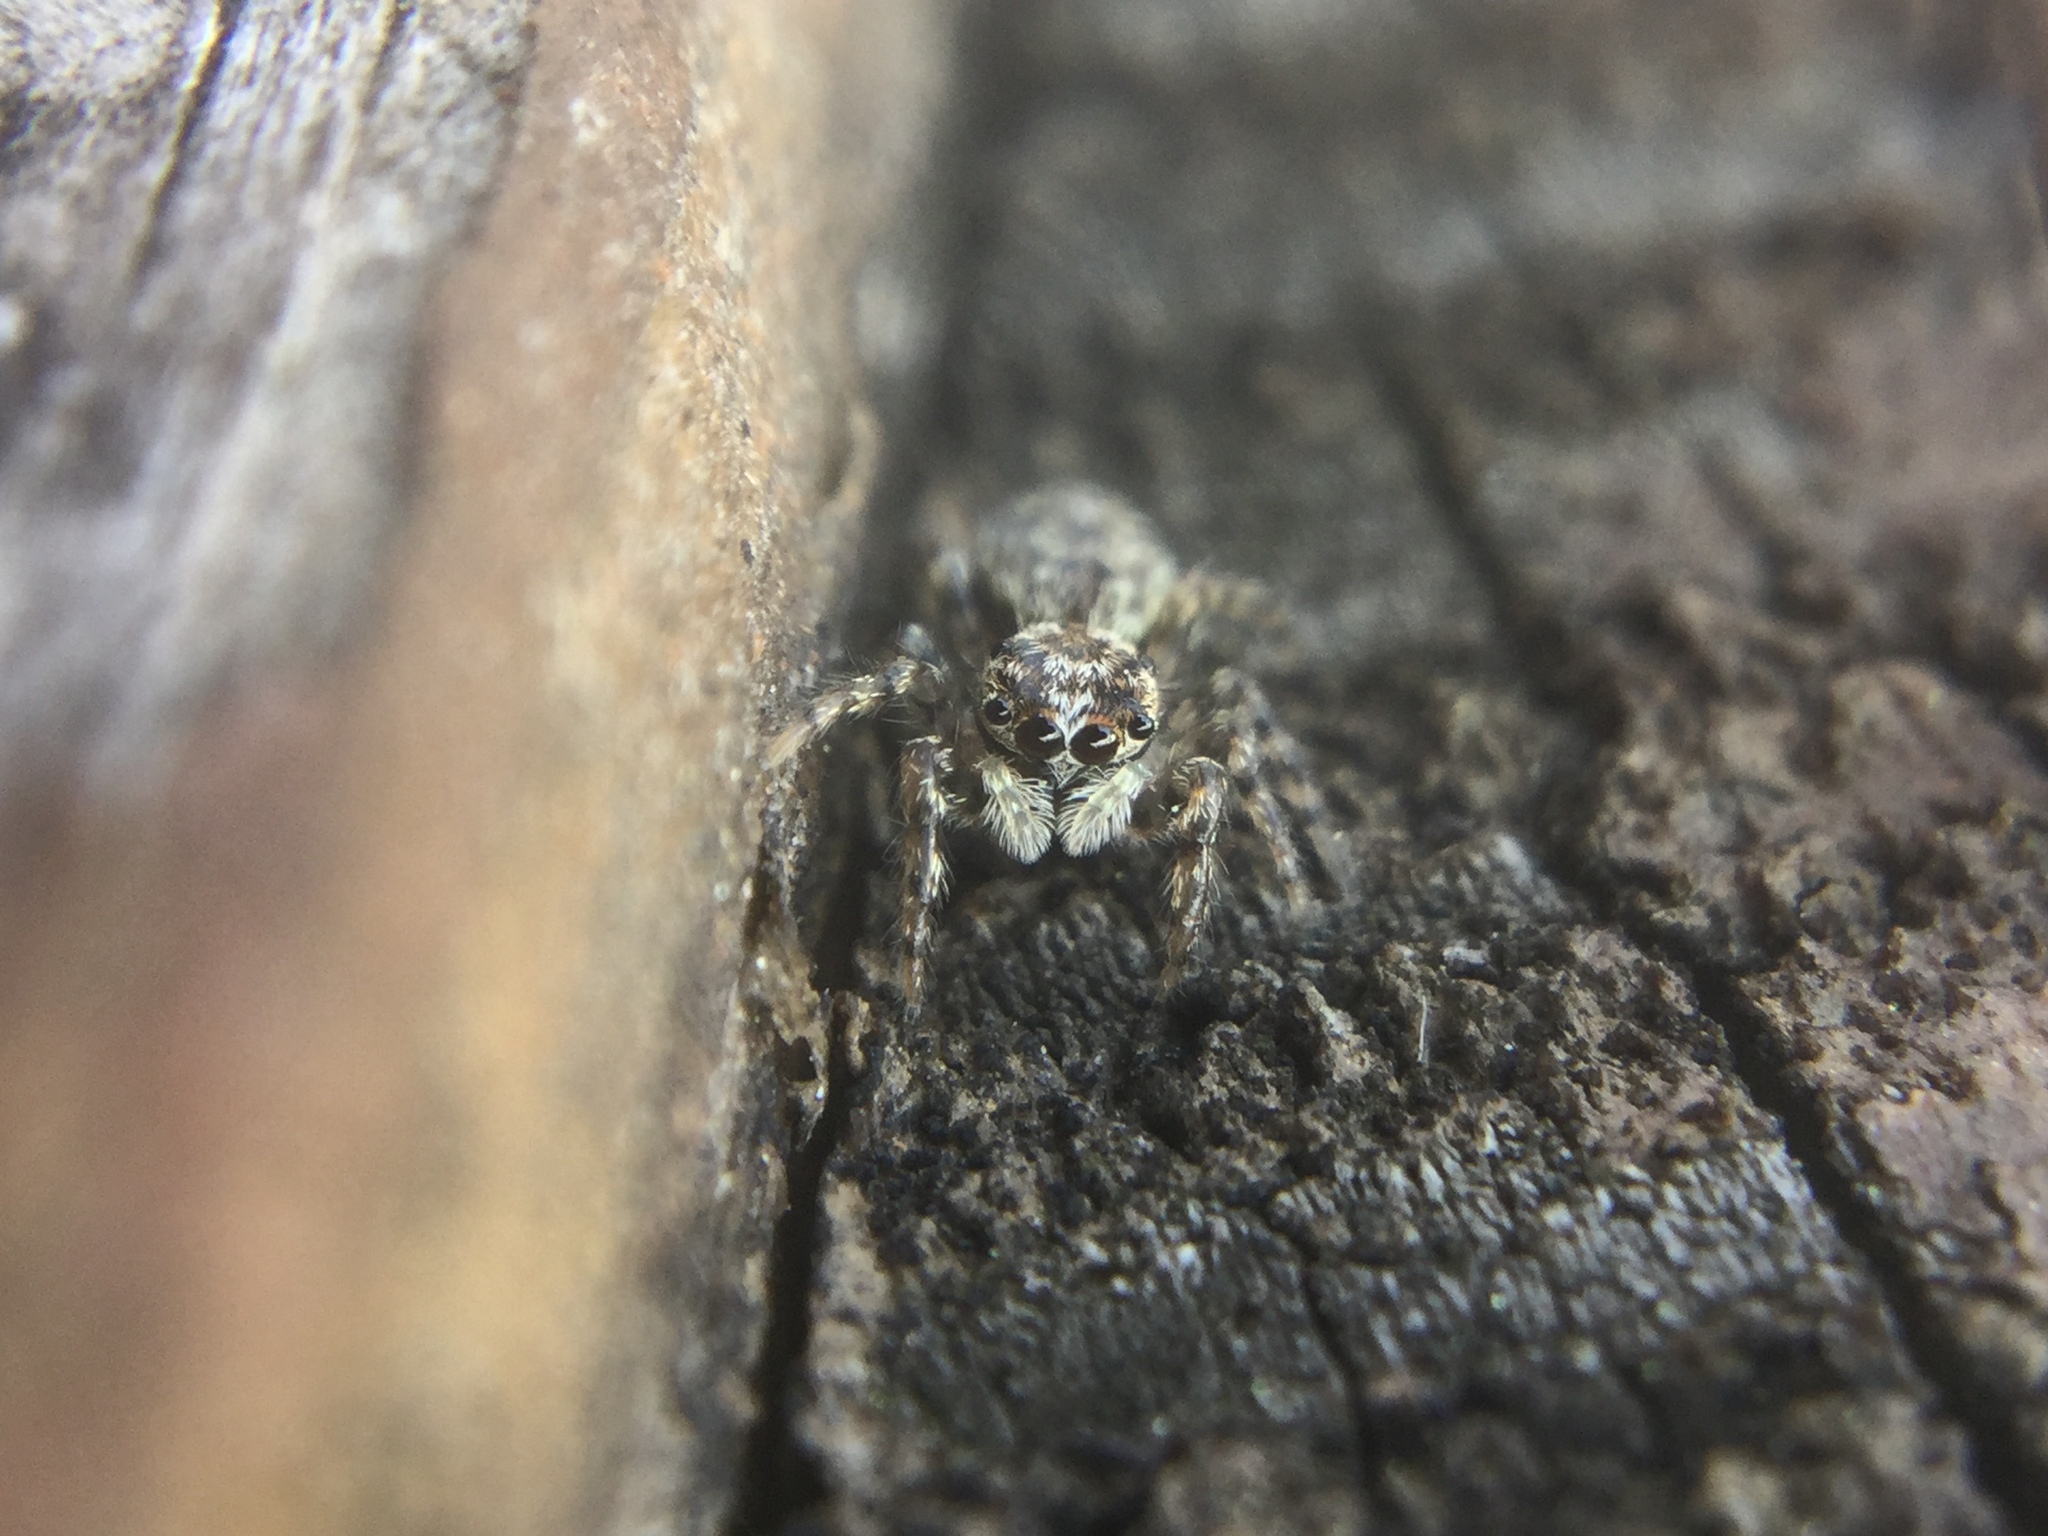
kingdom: Animalia
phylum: Arthropoda
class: Arachnida
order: Araneae
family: Salticidae
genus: Platycryptus
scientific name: Platycryptus undatus
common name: Tan jumping spider
